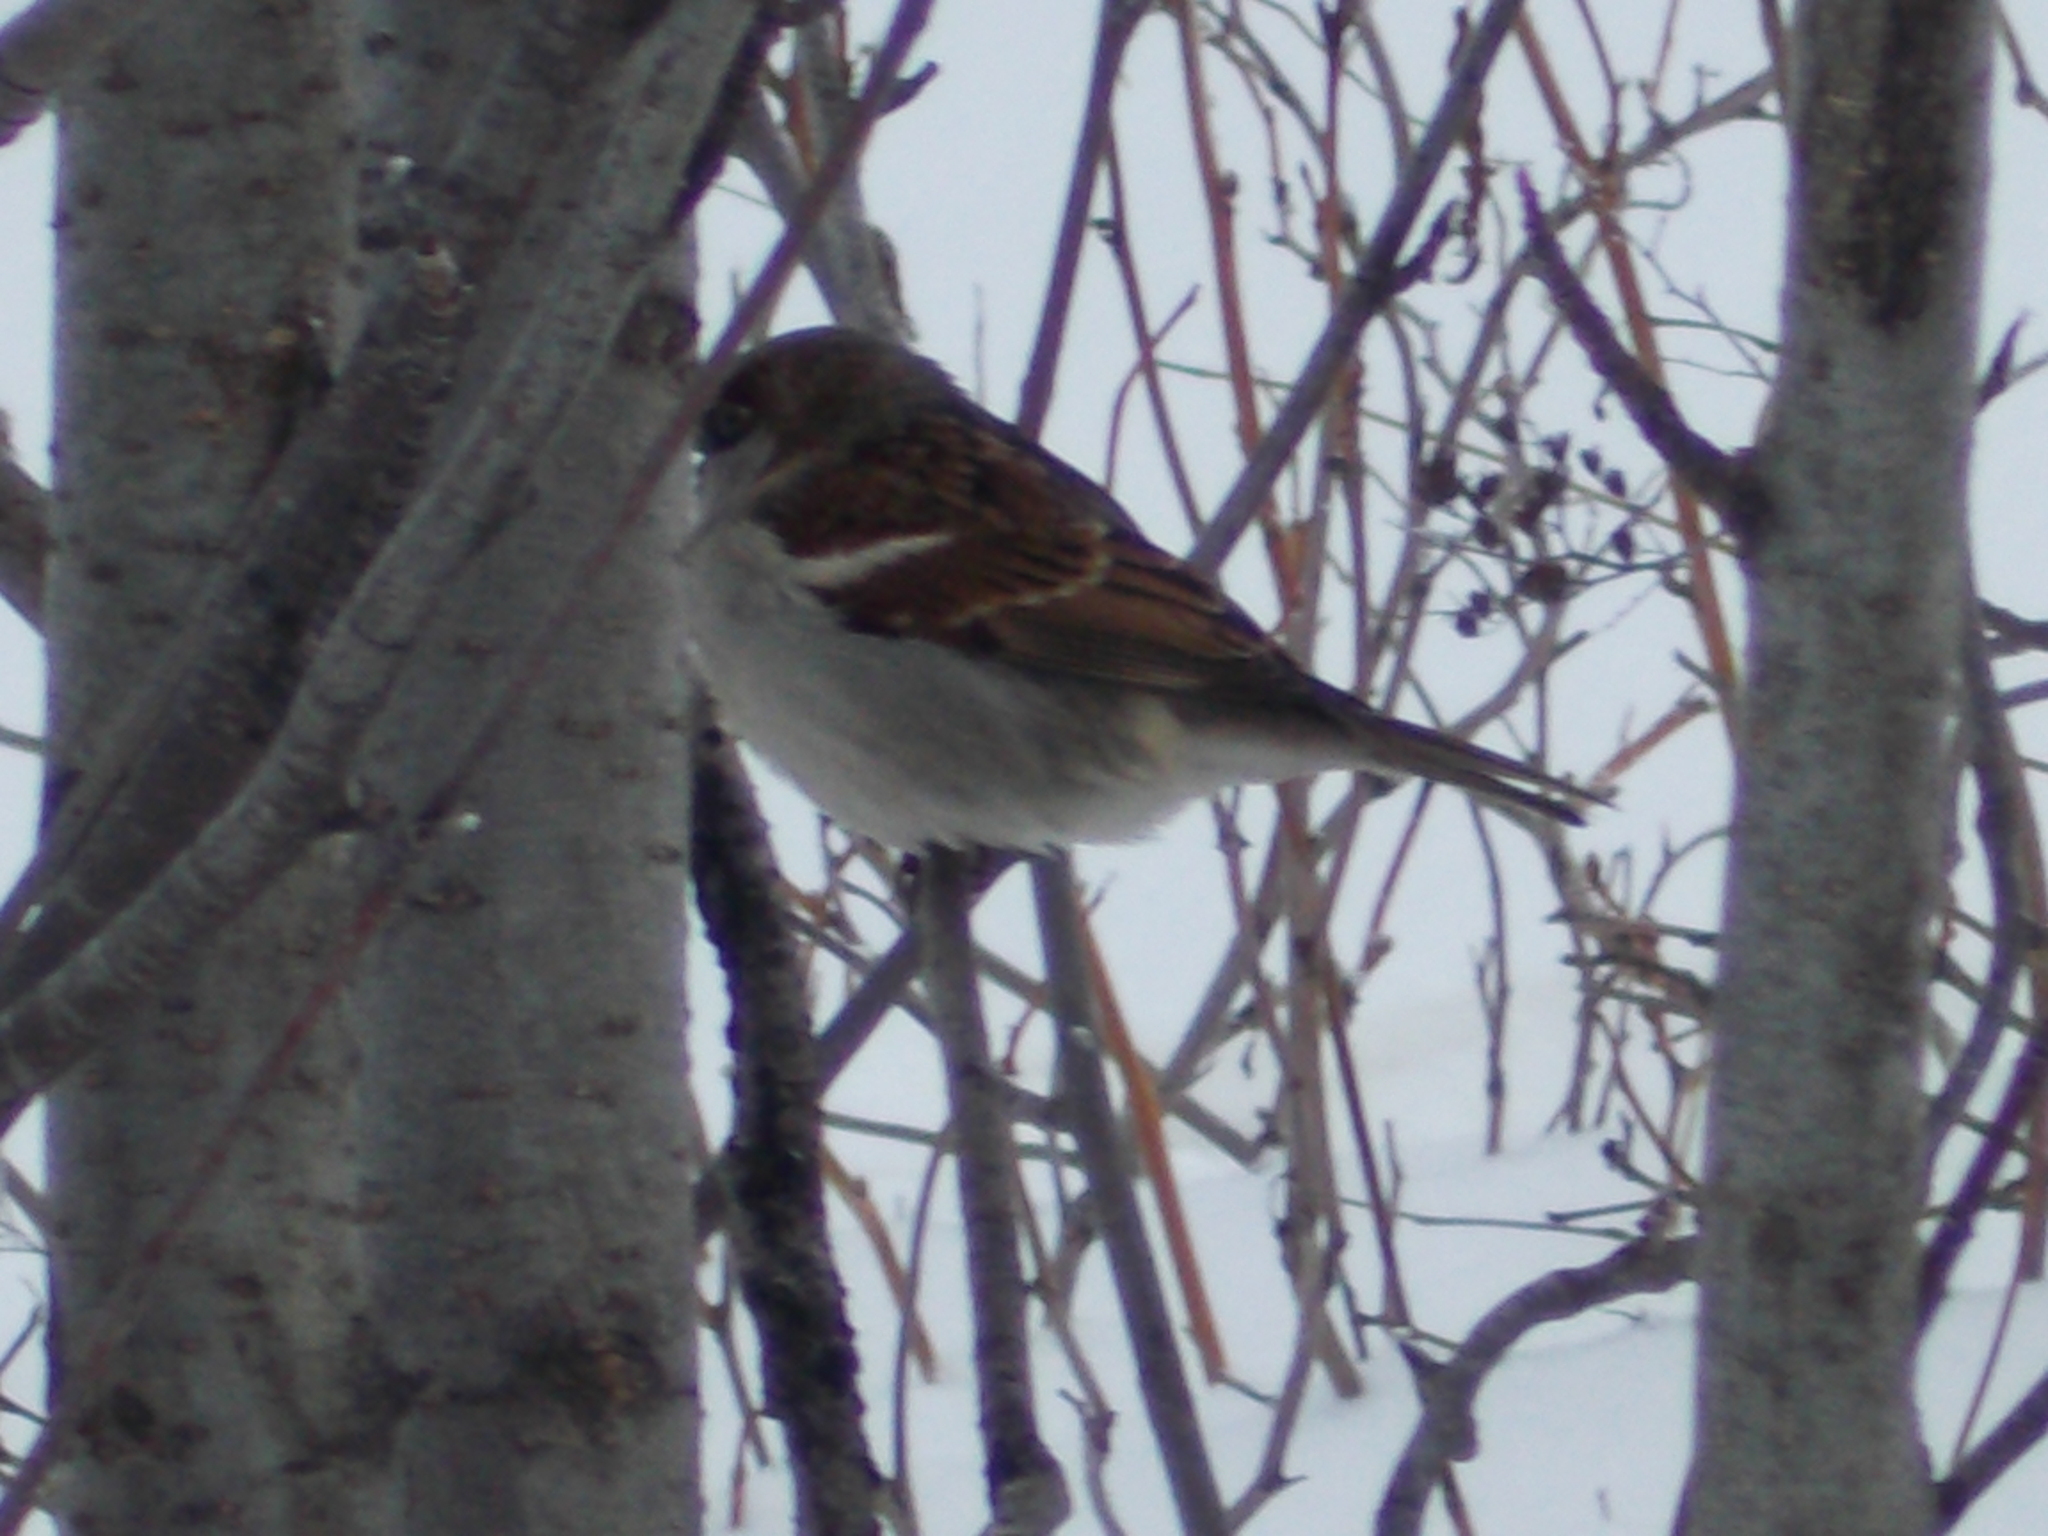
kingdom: Animalia
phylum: Chordata
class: Aves
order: Passeriformes
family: Passeridae
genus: Passer
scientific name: Passer domesticus
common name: House sparrow
